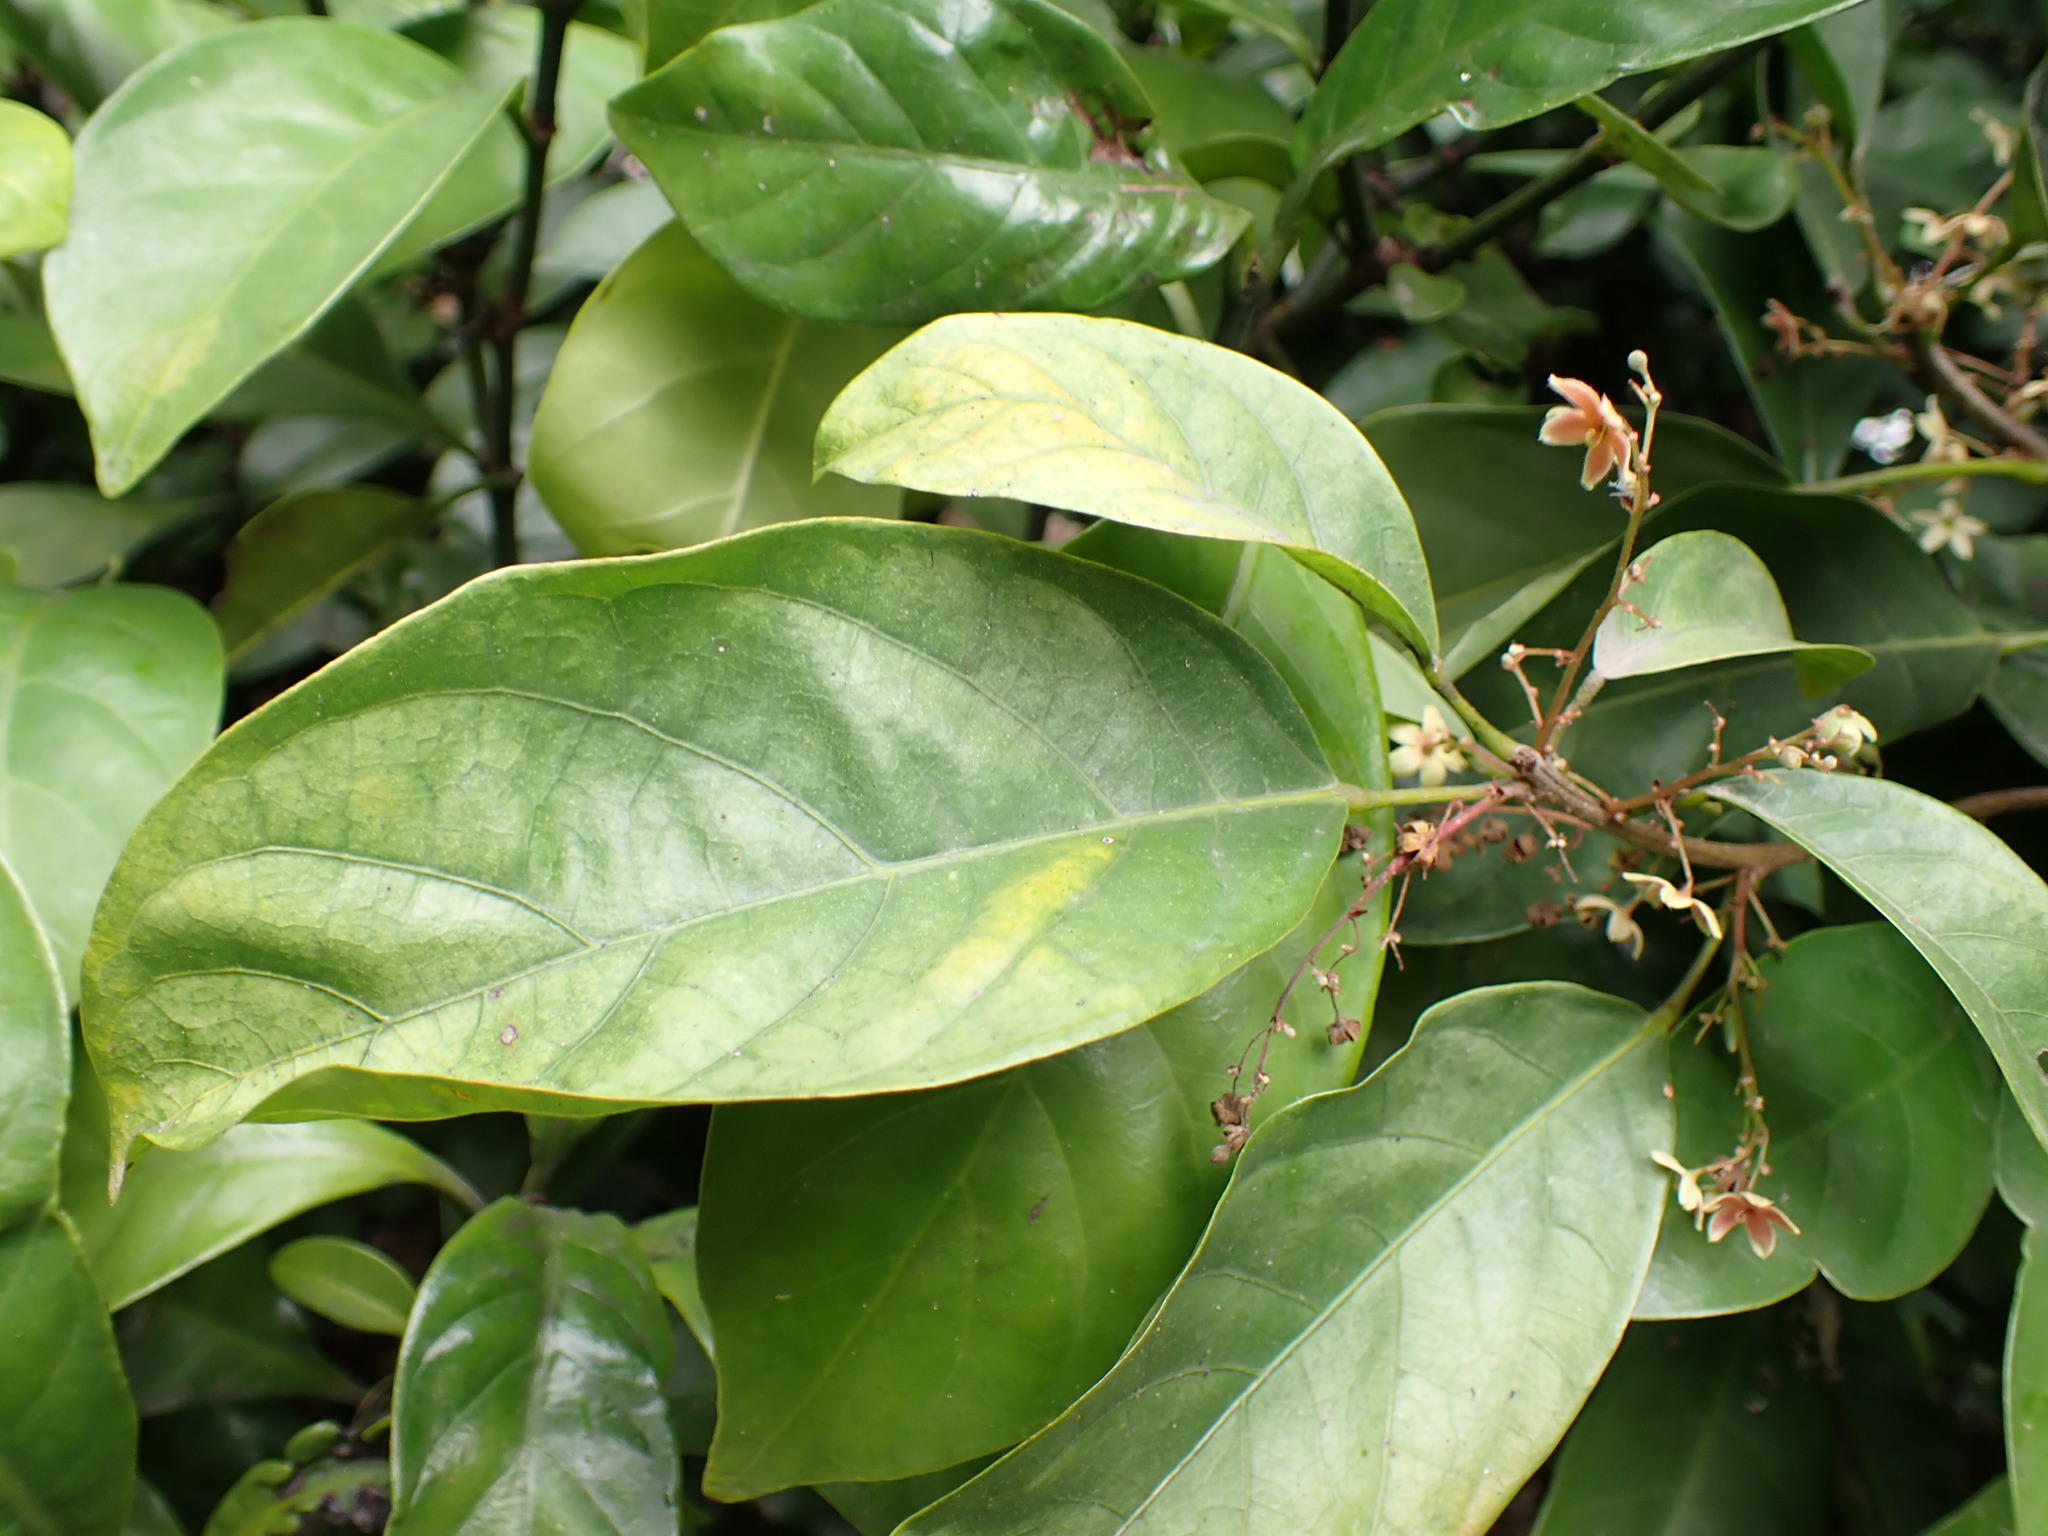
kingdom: Plantae
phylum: Tracheophyta
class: Magnoliopsida
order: Malvales
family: Malvaceae
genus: Sterculia
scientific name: Sterculia lanceolata
